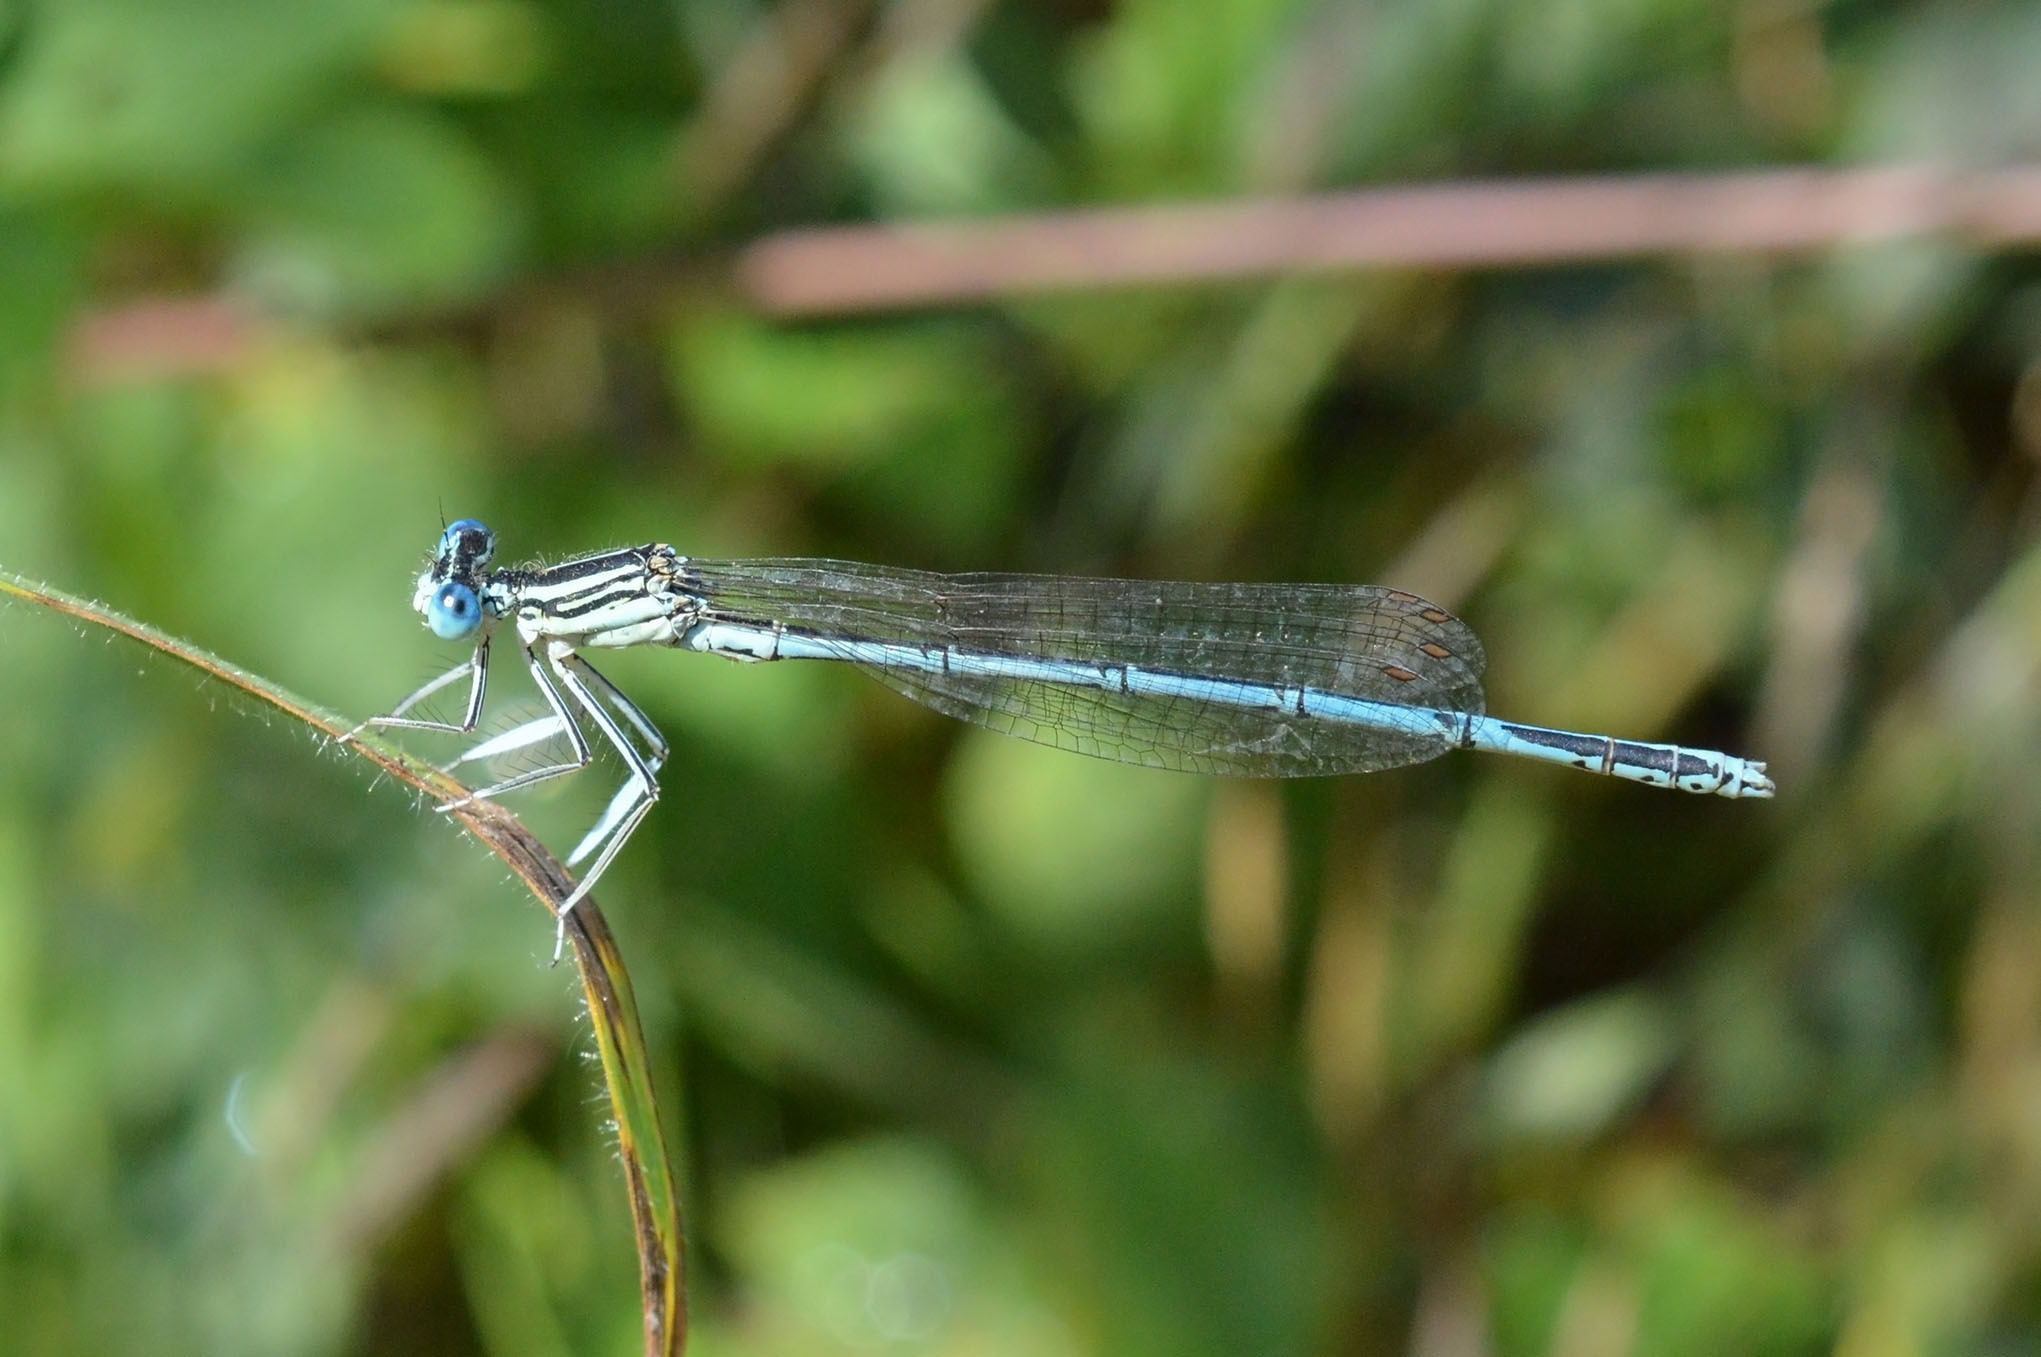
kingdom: Animalia
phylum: Arthropoda
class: Insecta
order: Odonata
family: Platycnemididae
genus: Platycnemis
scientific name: Platycnemis pennipes
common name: White-legged damselfly
